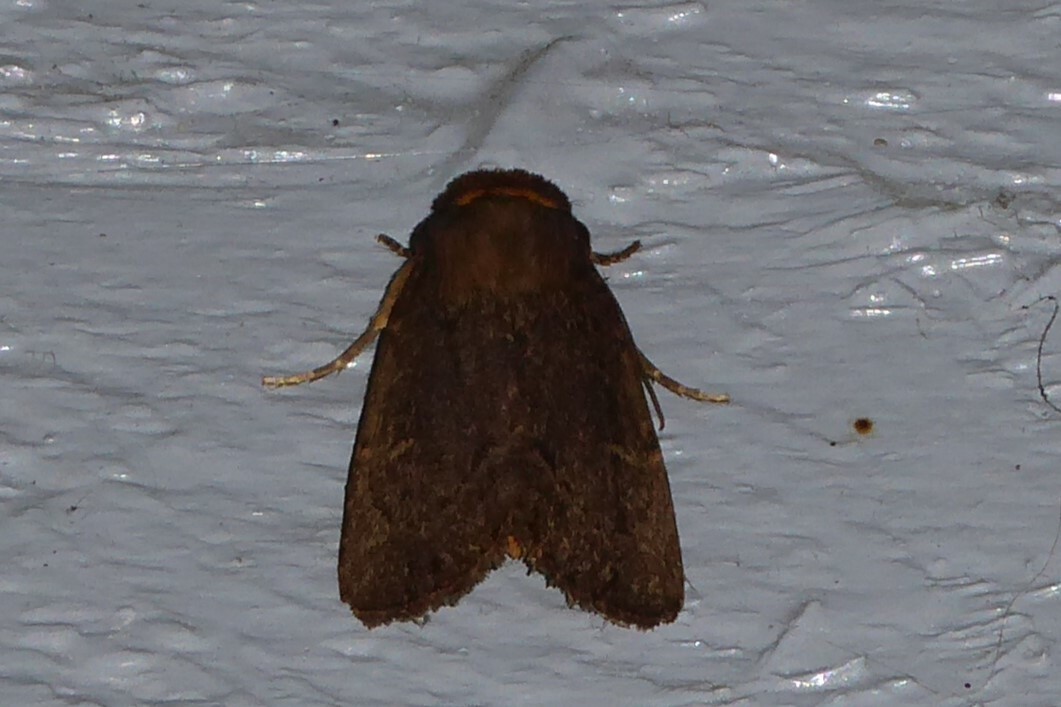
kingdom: Animalia
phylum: Arthropoda
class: Insecta
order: Lepidoptera
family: Noctuidae
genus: Bityla
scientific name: Bityla defigurata
